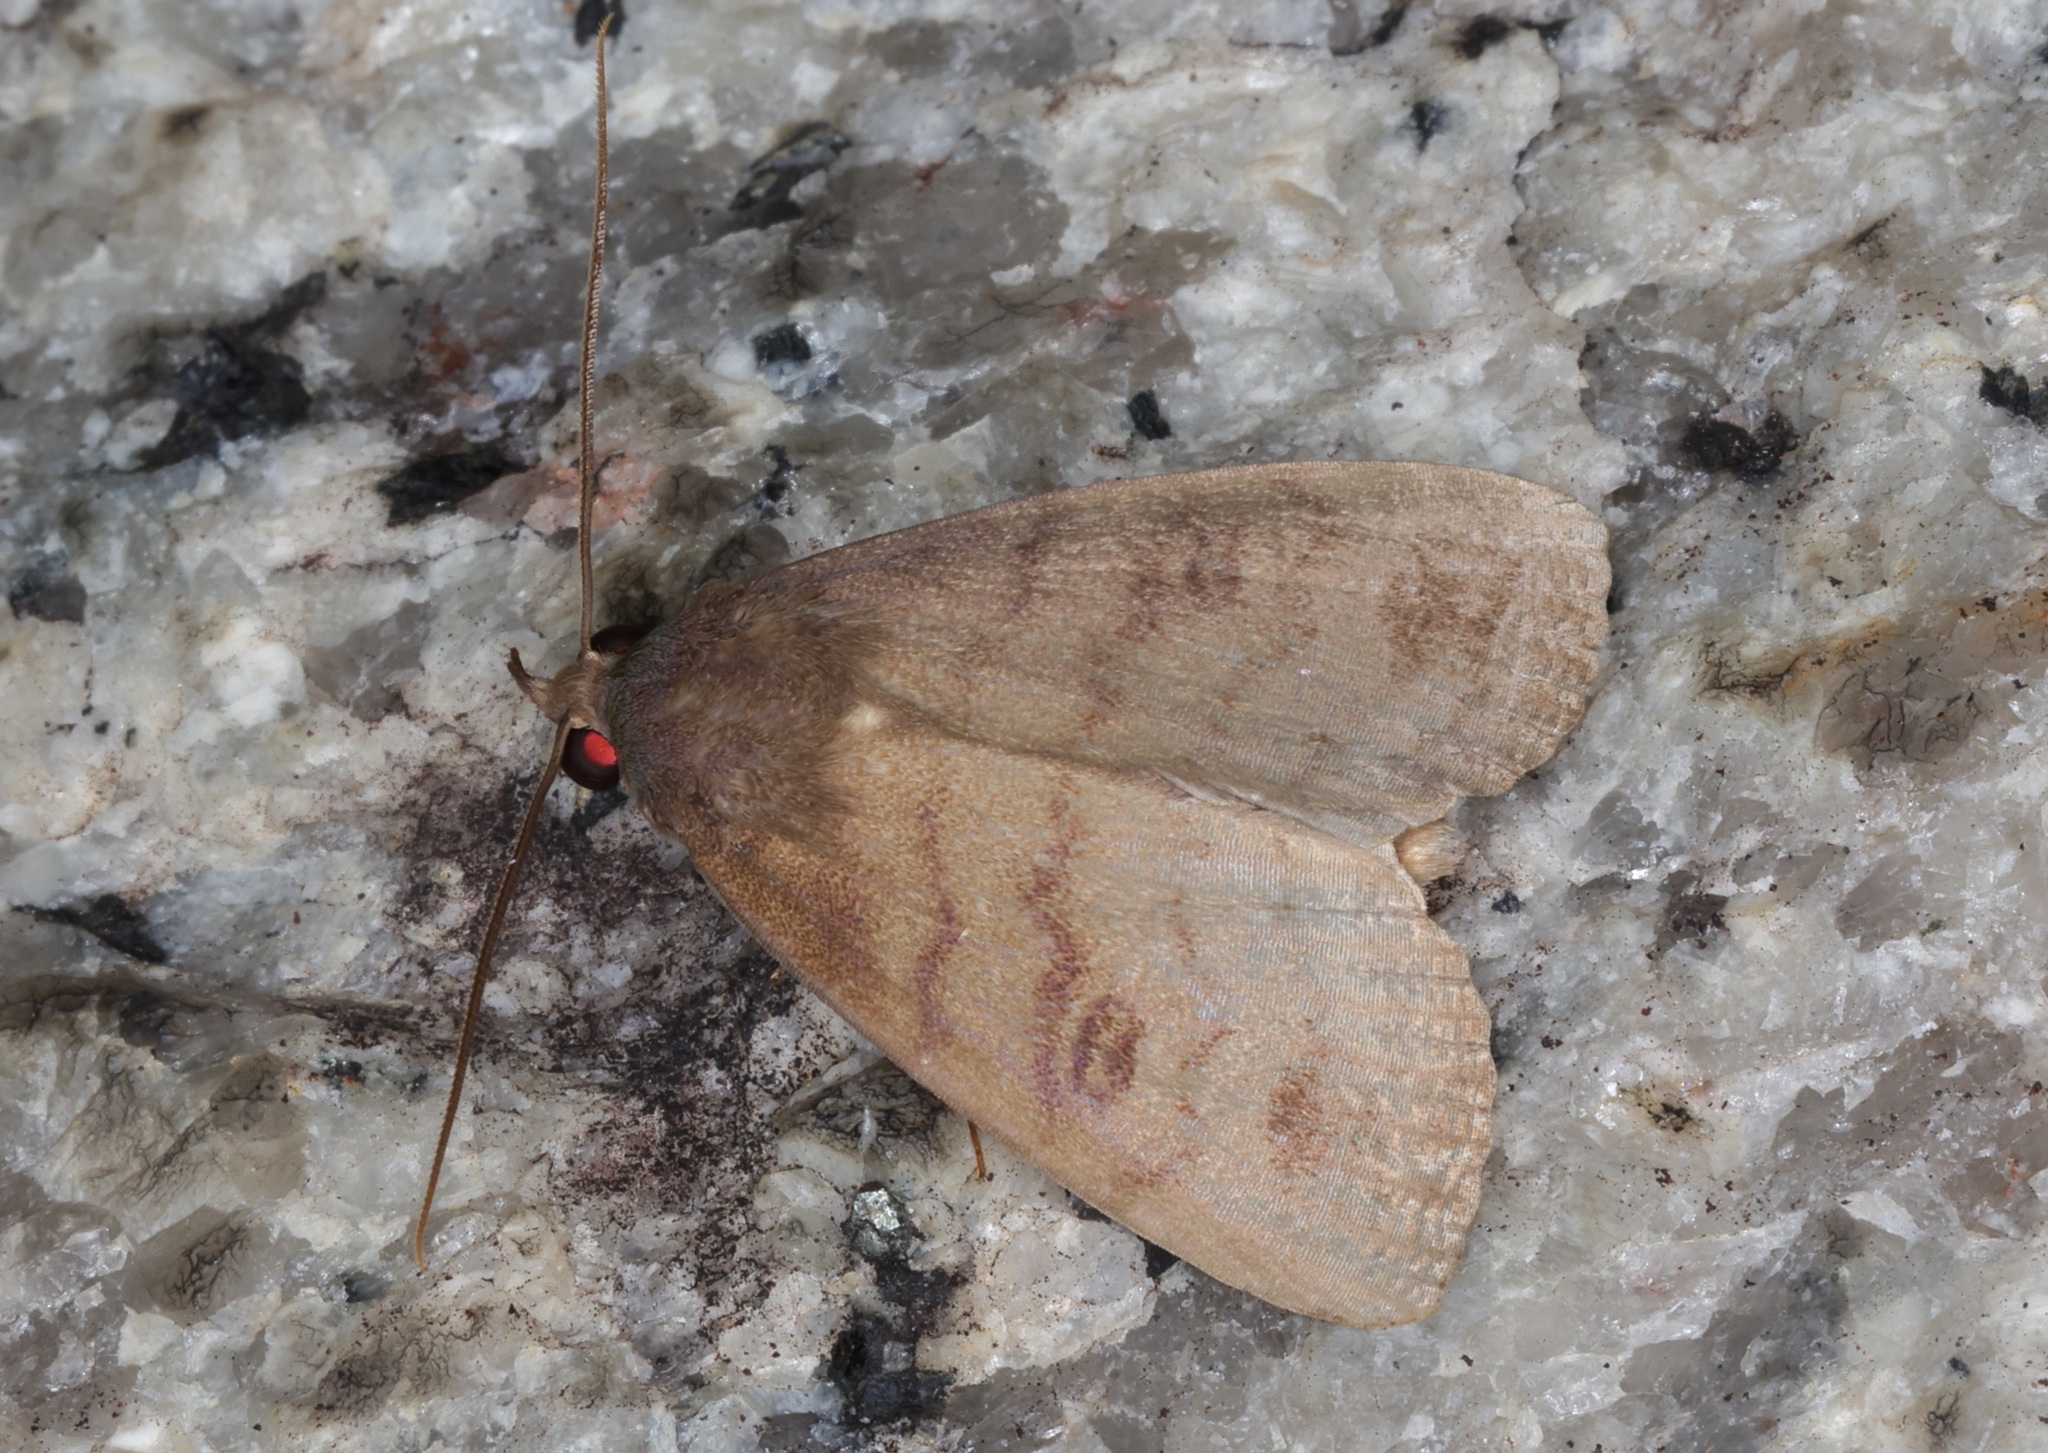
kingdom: Animalia
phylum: Arthropoda
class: Insecta
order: Lepidoptera
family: Erebidae
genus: Avitta
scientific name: Avitta fasciosa
